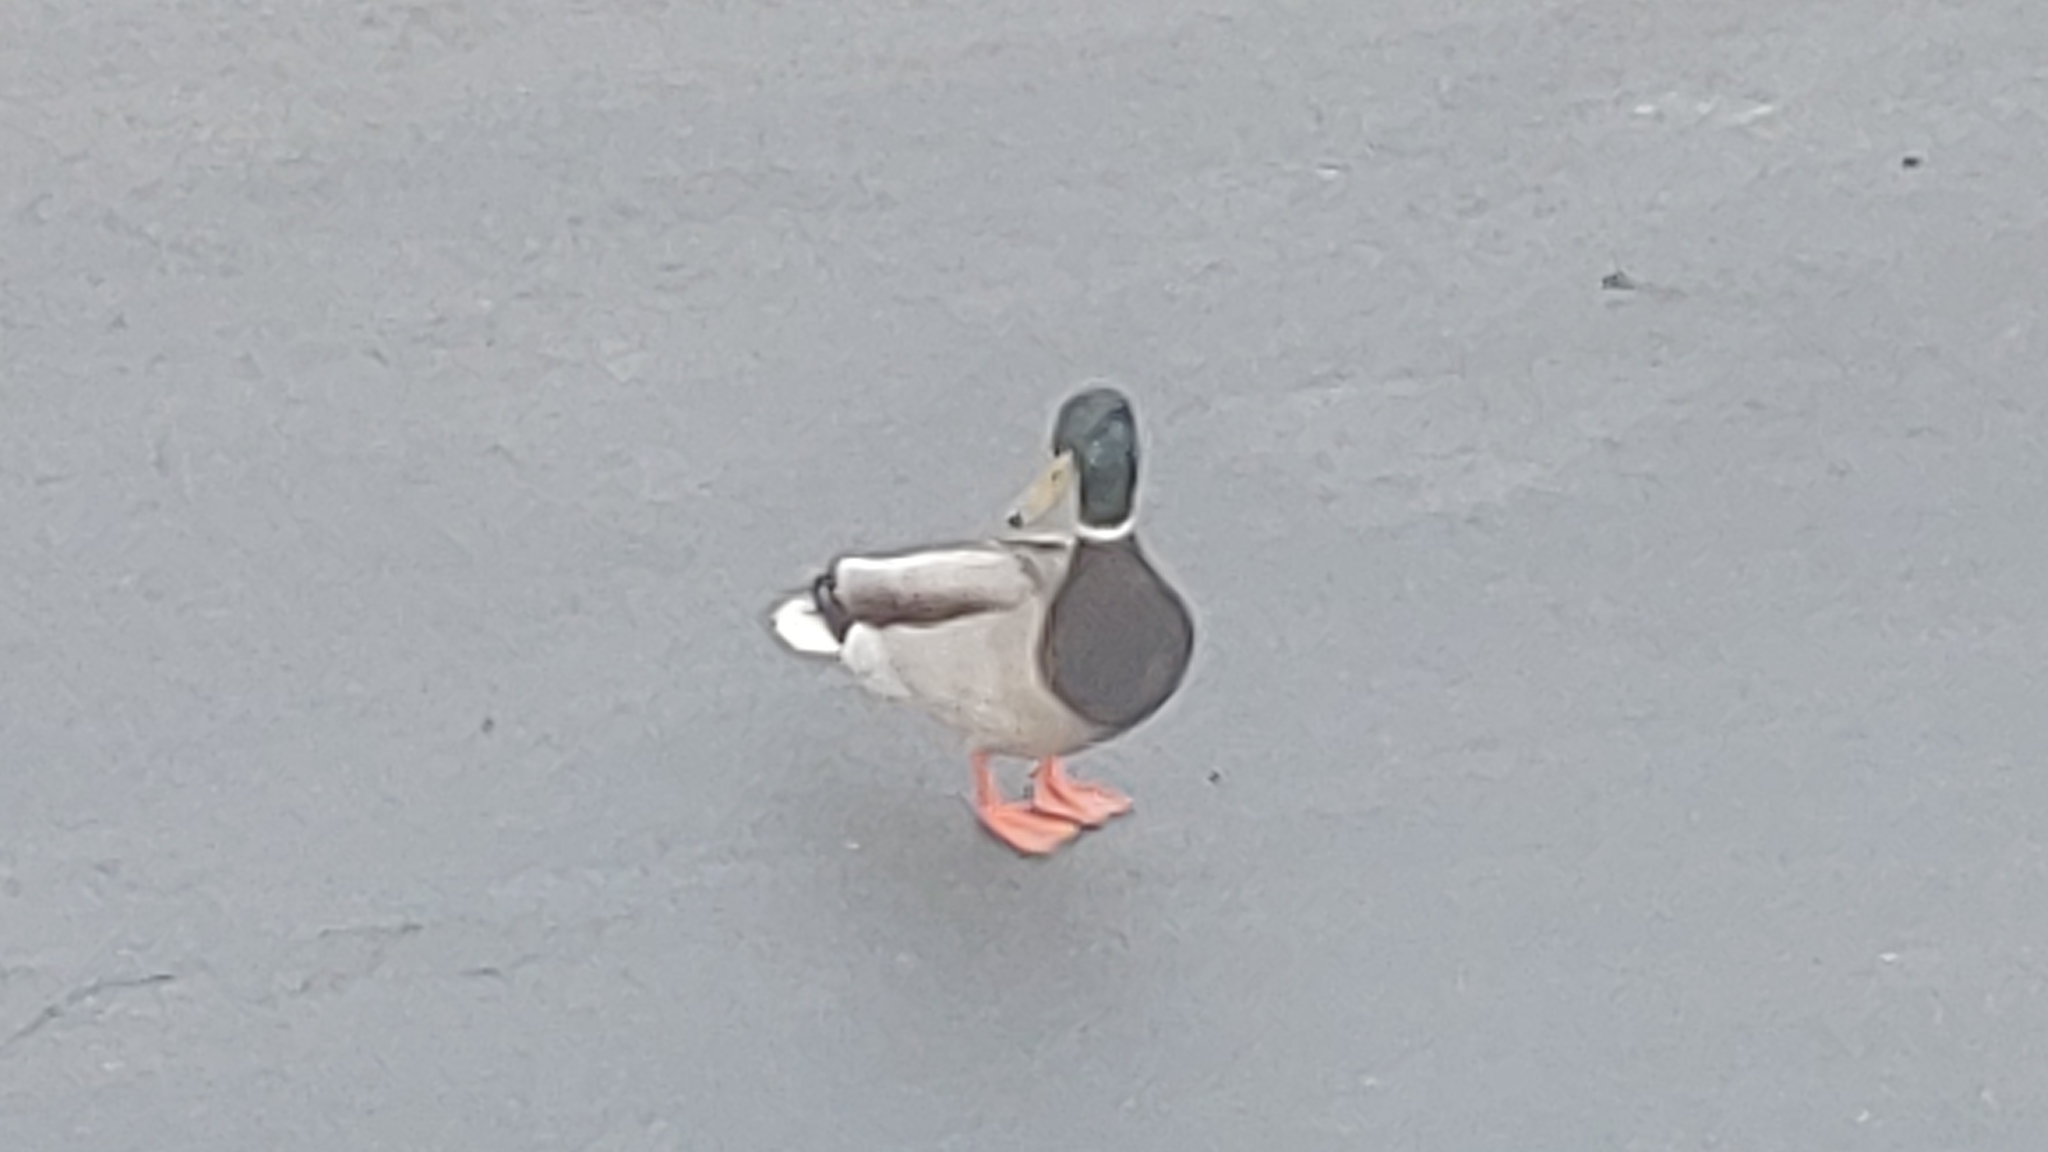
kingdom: Animalia
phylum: Chordata
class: Aves
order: Anseriformes
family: Anatidae
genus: Anas
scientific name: Anas platyrhynchos
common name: Mallard
